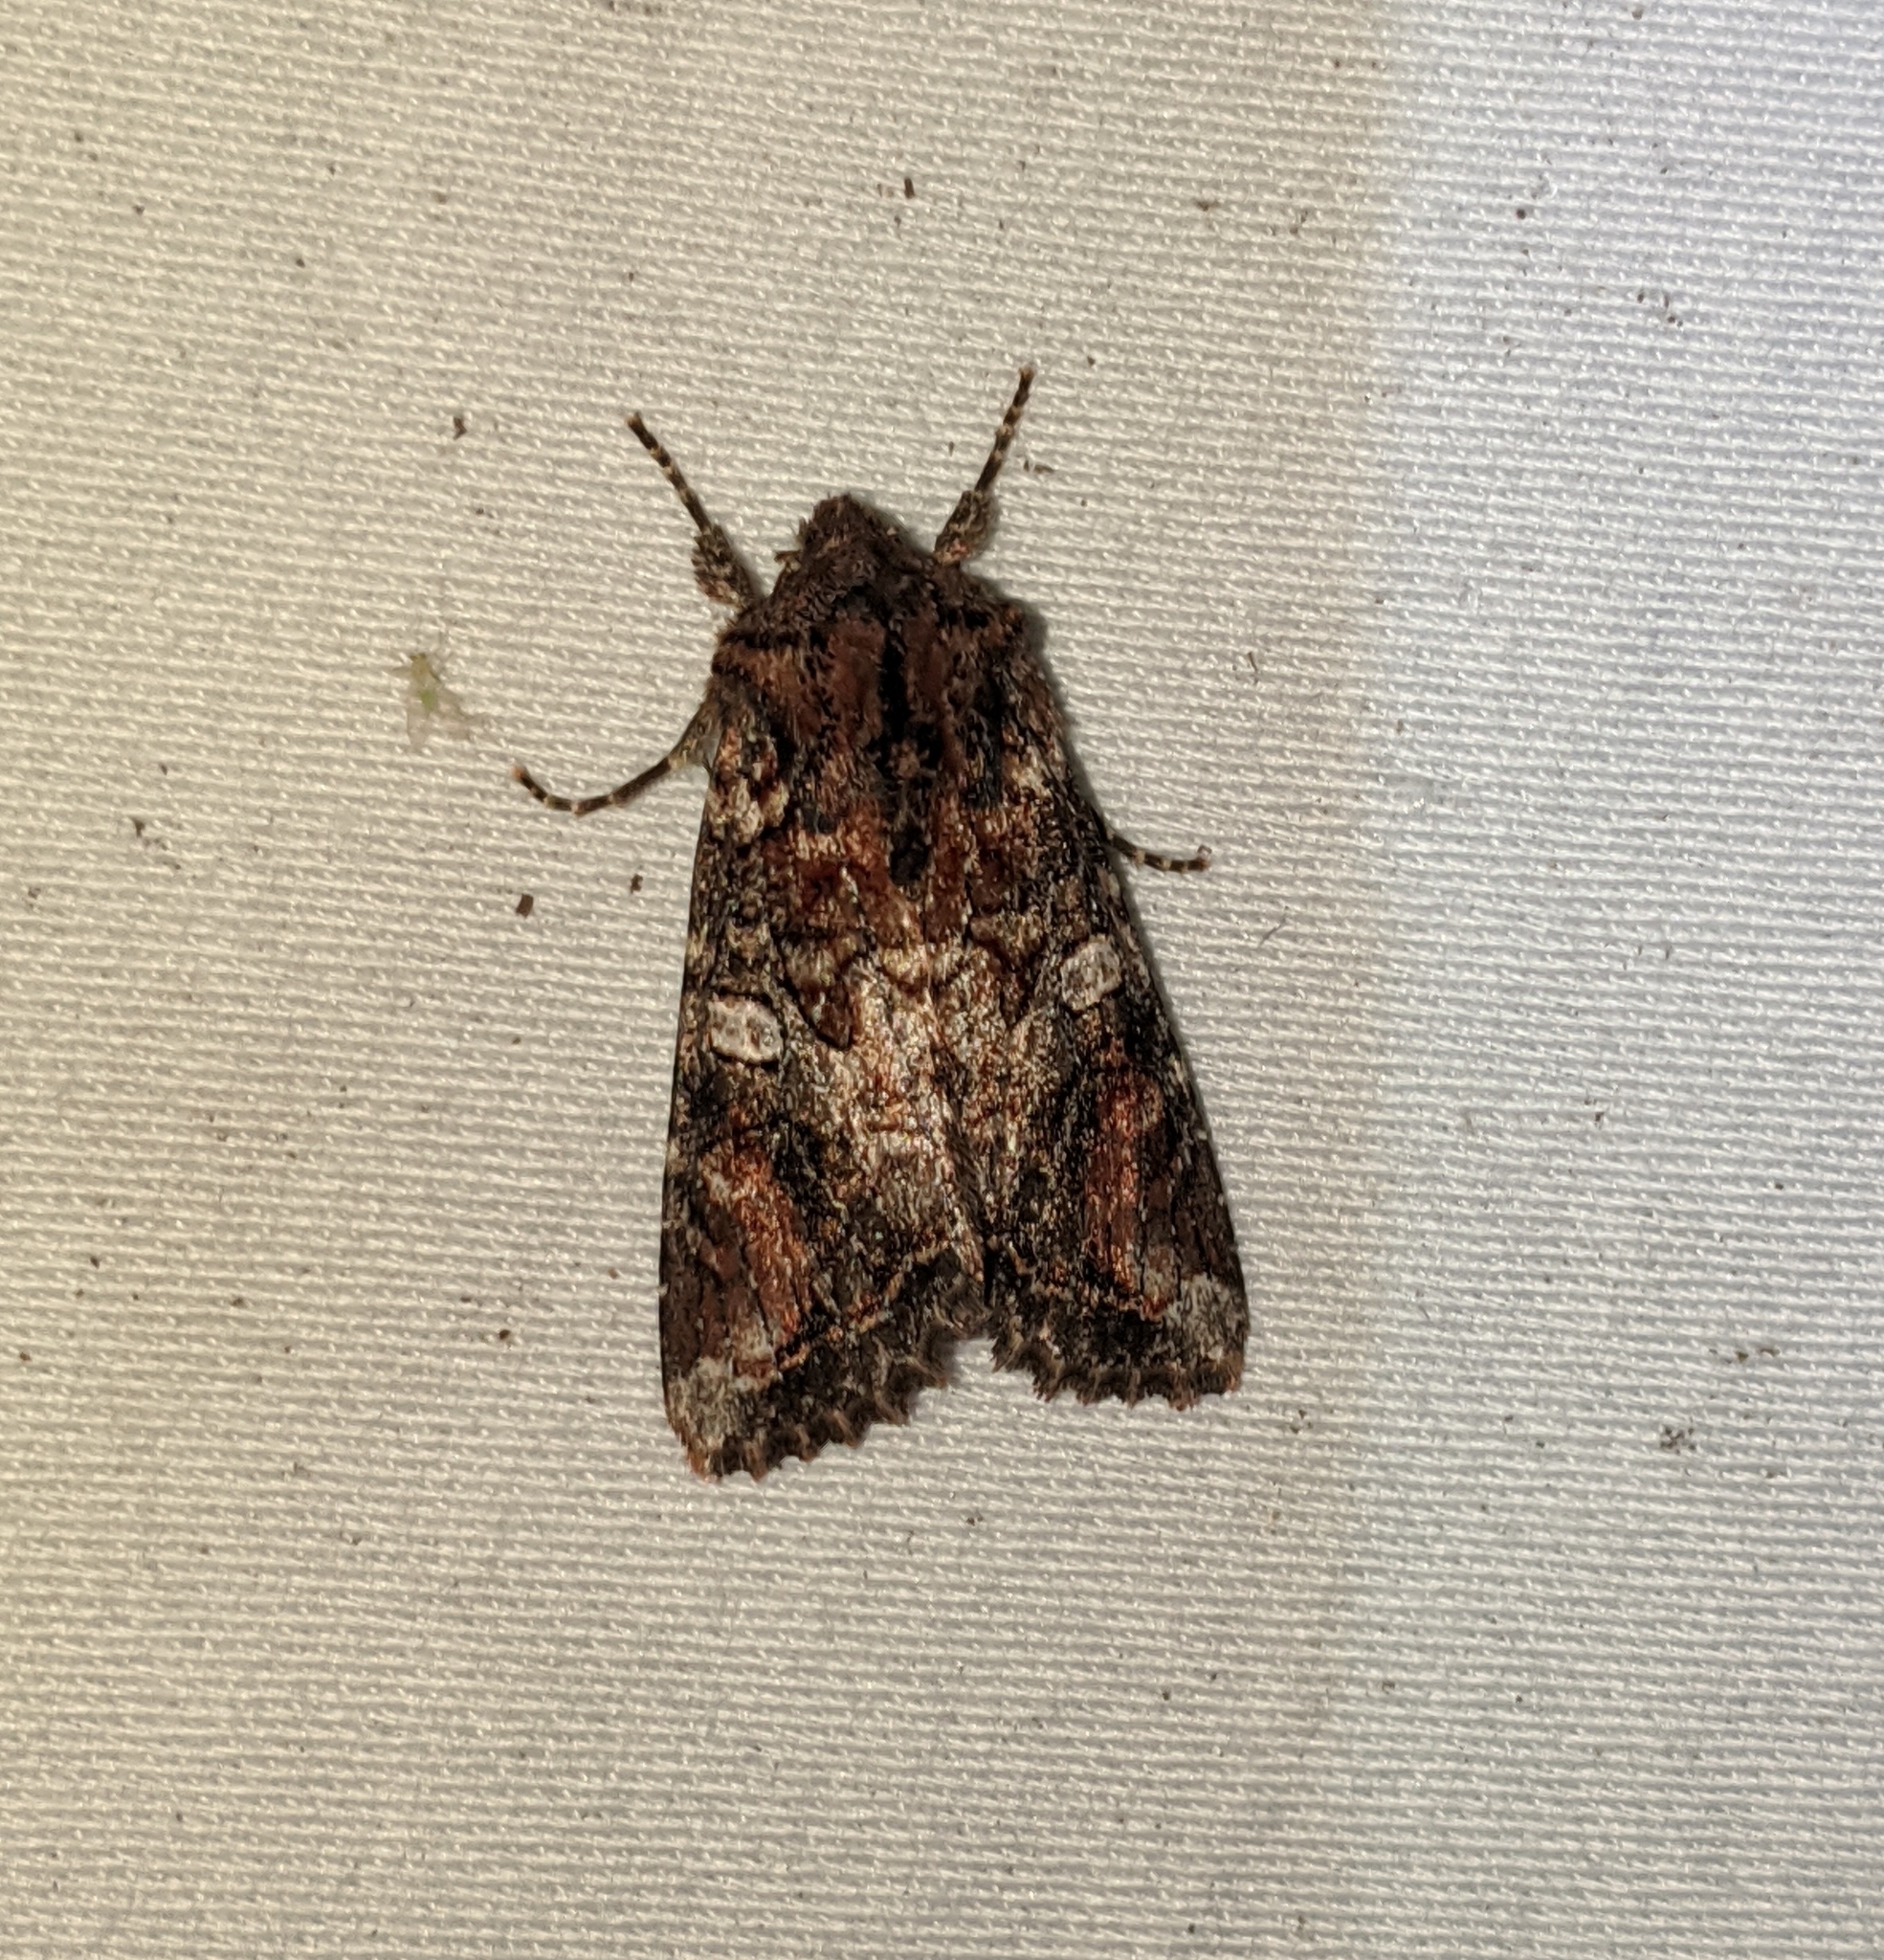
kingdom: Animalia
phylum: Arthropoda
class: Insecta
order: Lepidoptera
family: Noctuidae
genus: Egira
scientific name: Egira perlubens
